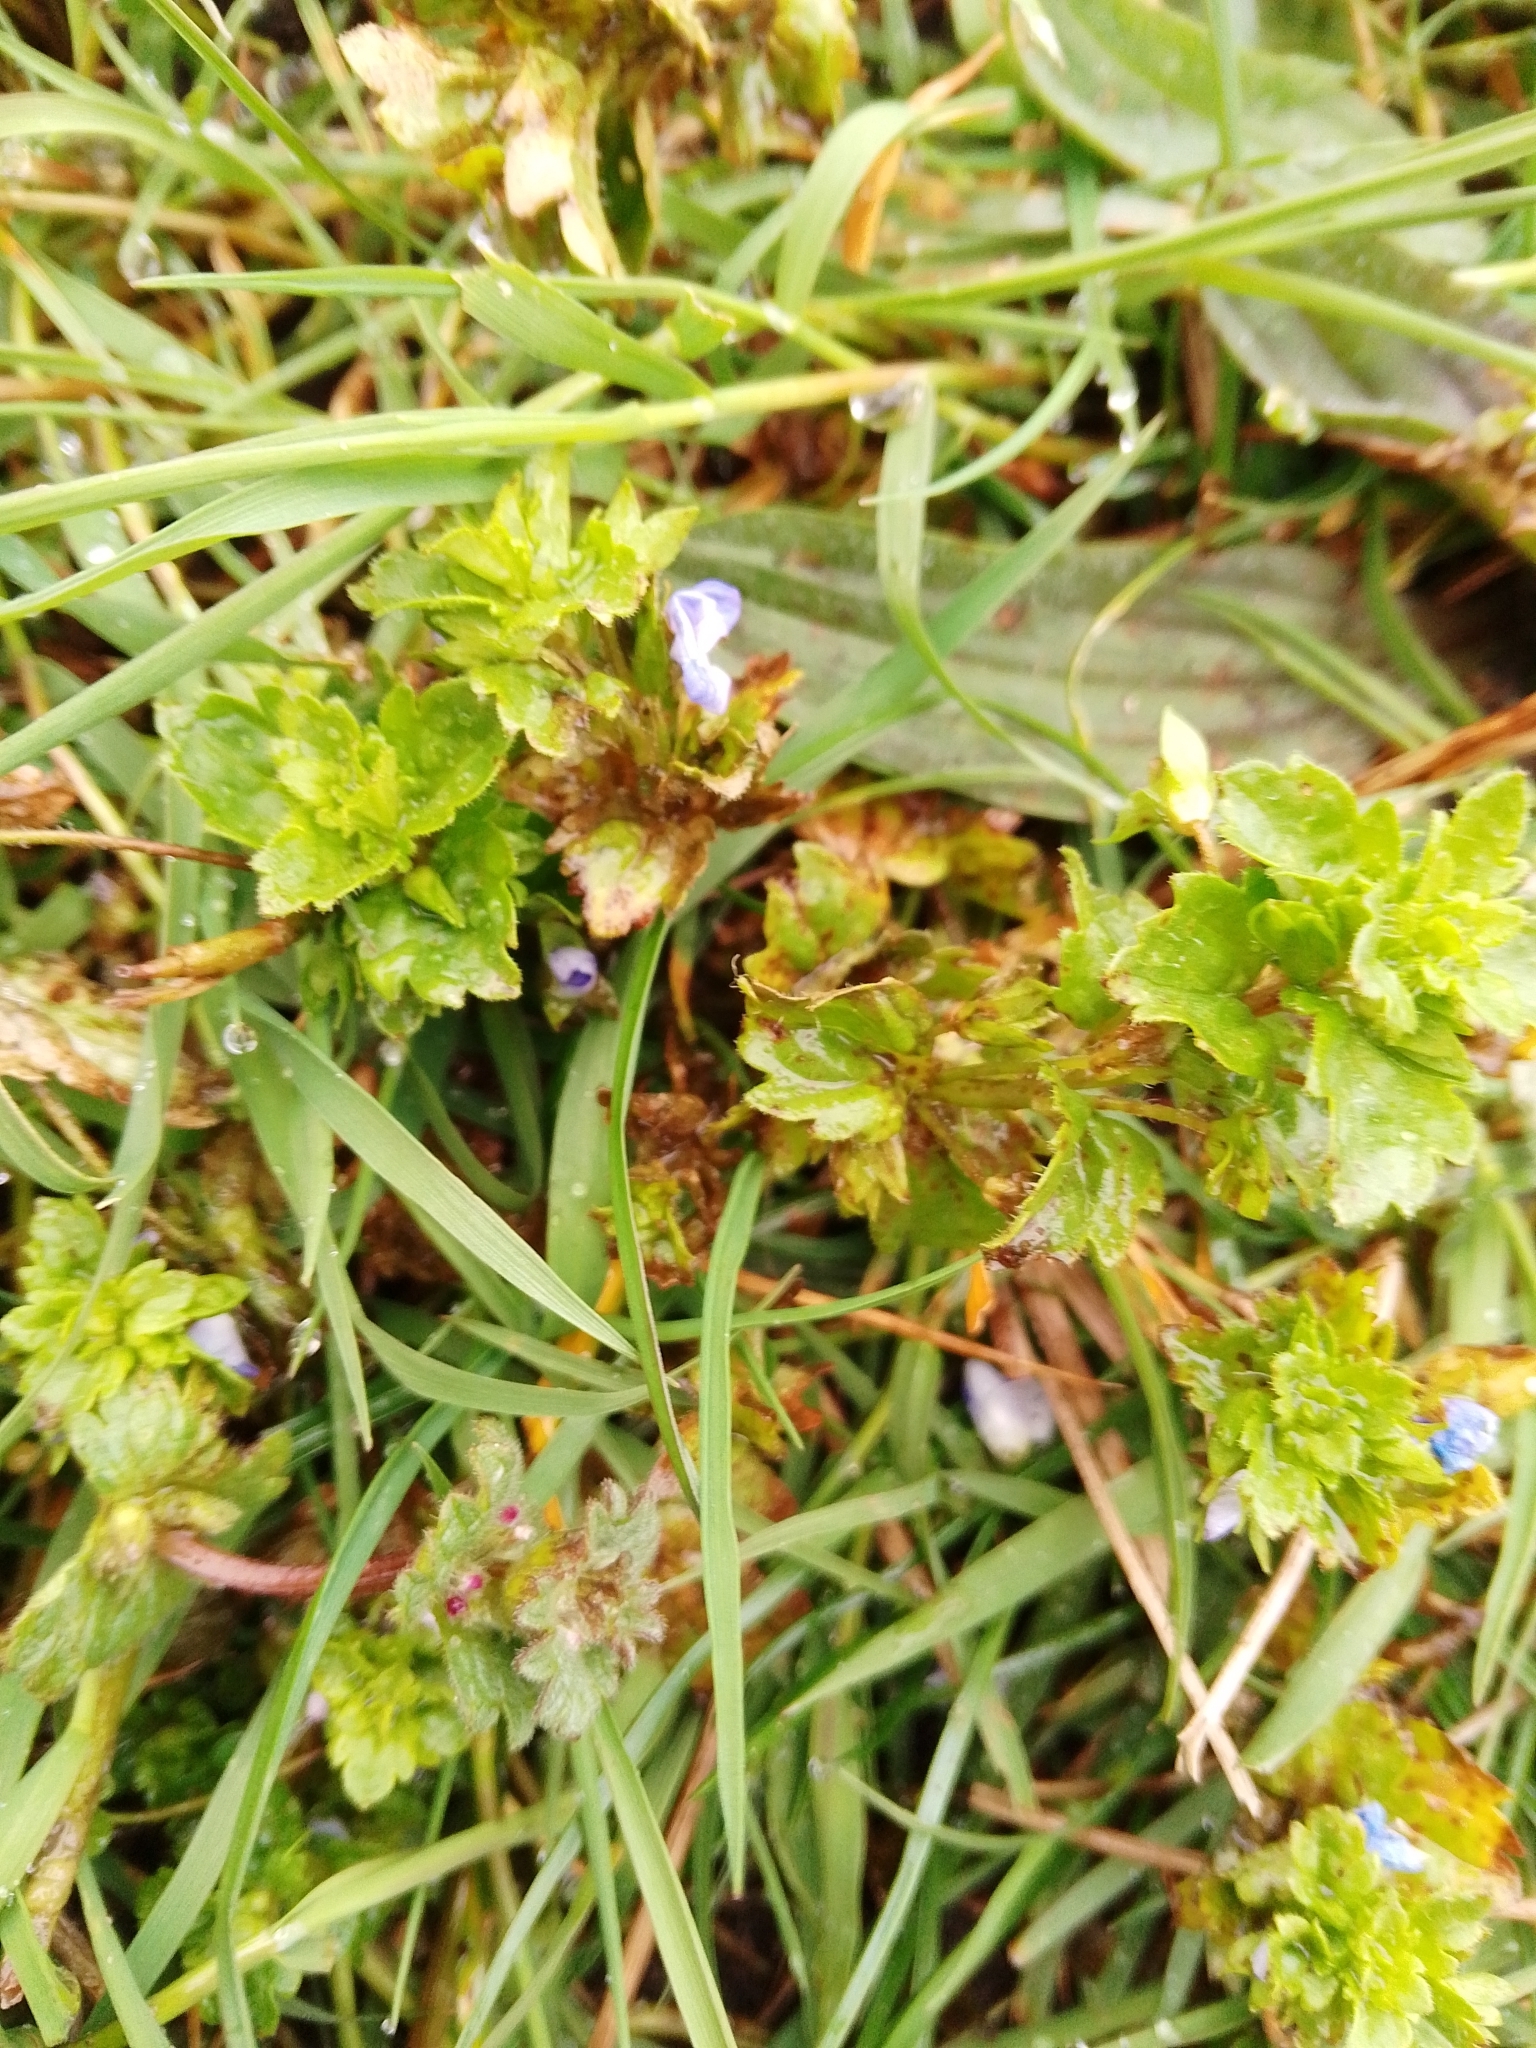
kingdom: Plantae
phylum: Tracheophyta
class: Magnoliopsida
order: Lamiales
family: Plantaginaceae
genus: Veronica
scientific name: Veronica persica
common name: Common field-speedwell
